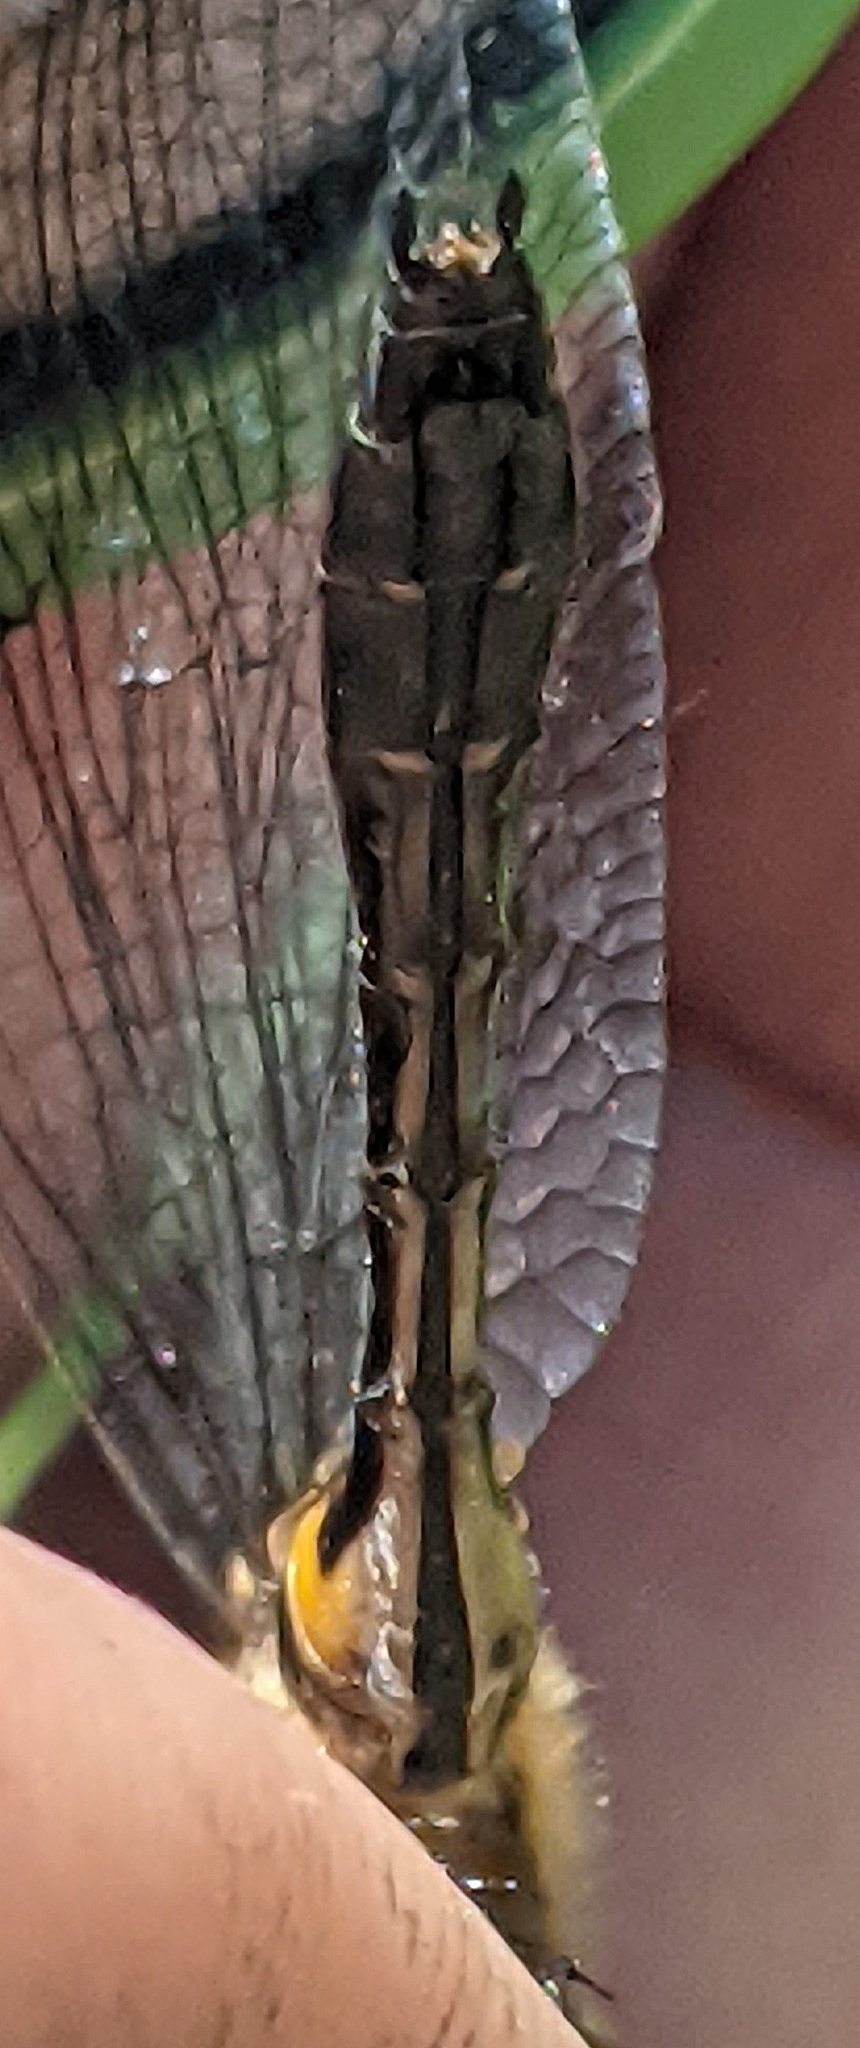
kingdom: Animalia
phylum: Arthropoda
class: Insecta
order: Odonata
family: Corduliidae
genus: Dorocordulia
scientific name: Dorocordulia libera
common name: Racket-tailed emerald
